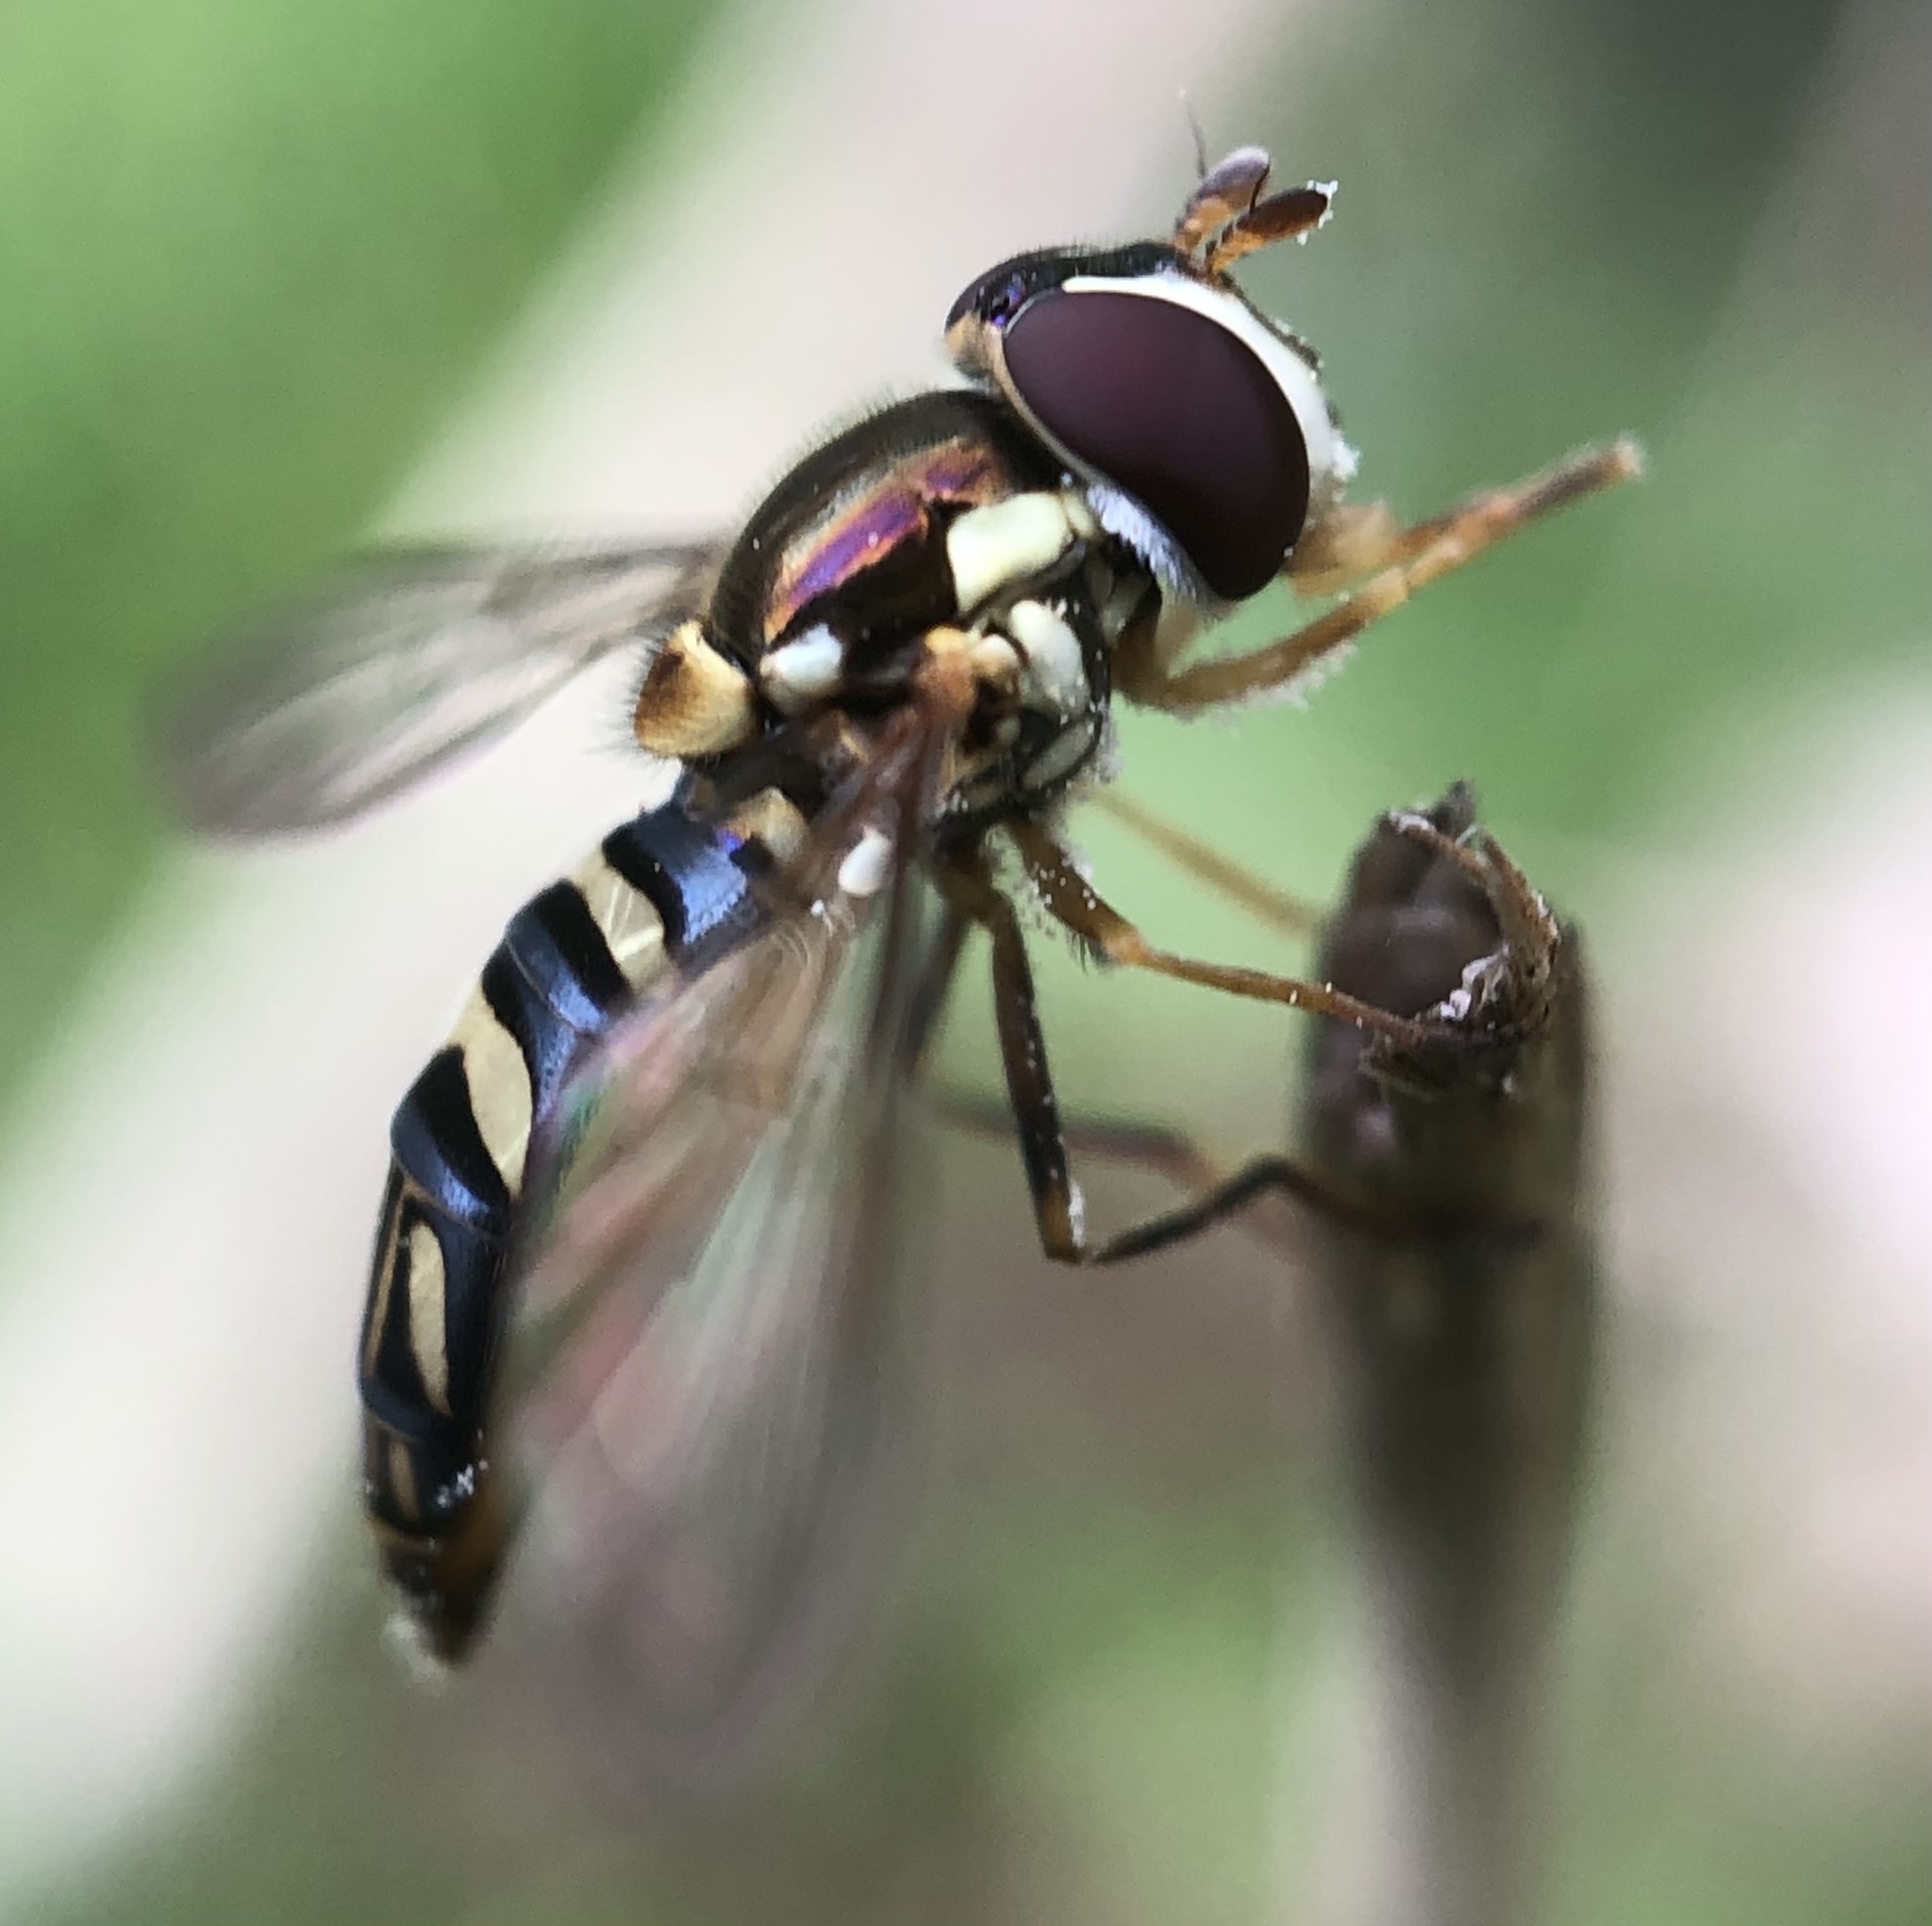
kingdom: Animalia
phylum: Arthropoda
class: Insecta
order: Diptera
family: Syrphidae
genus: Allograpta
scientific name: Allograpta obliqua
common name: Common oblique syrphid
